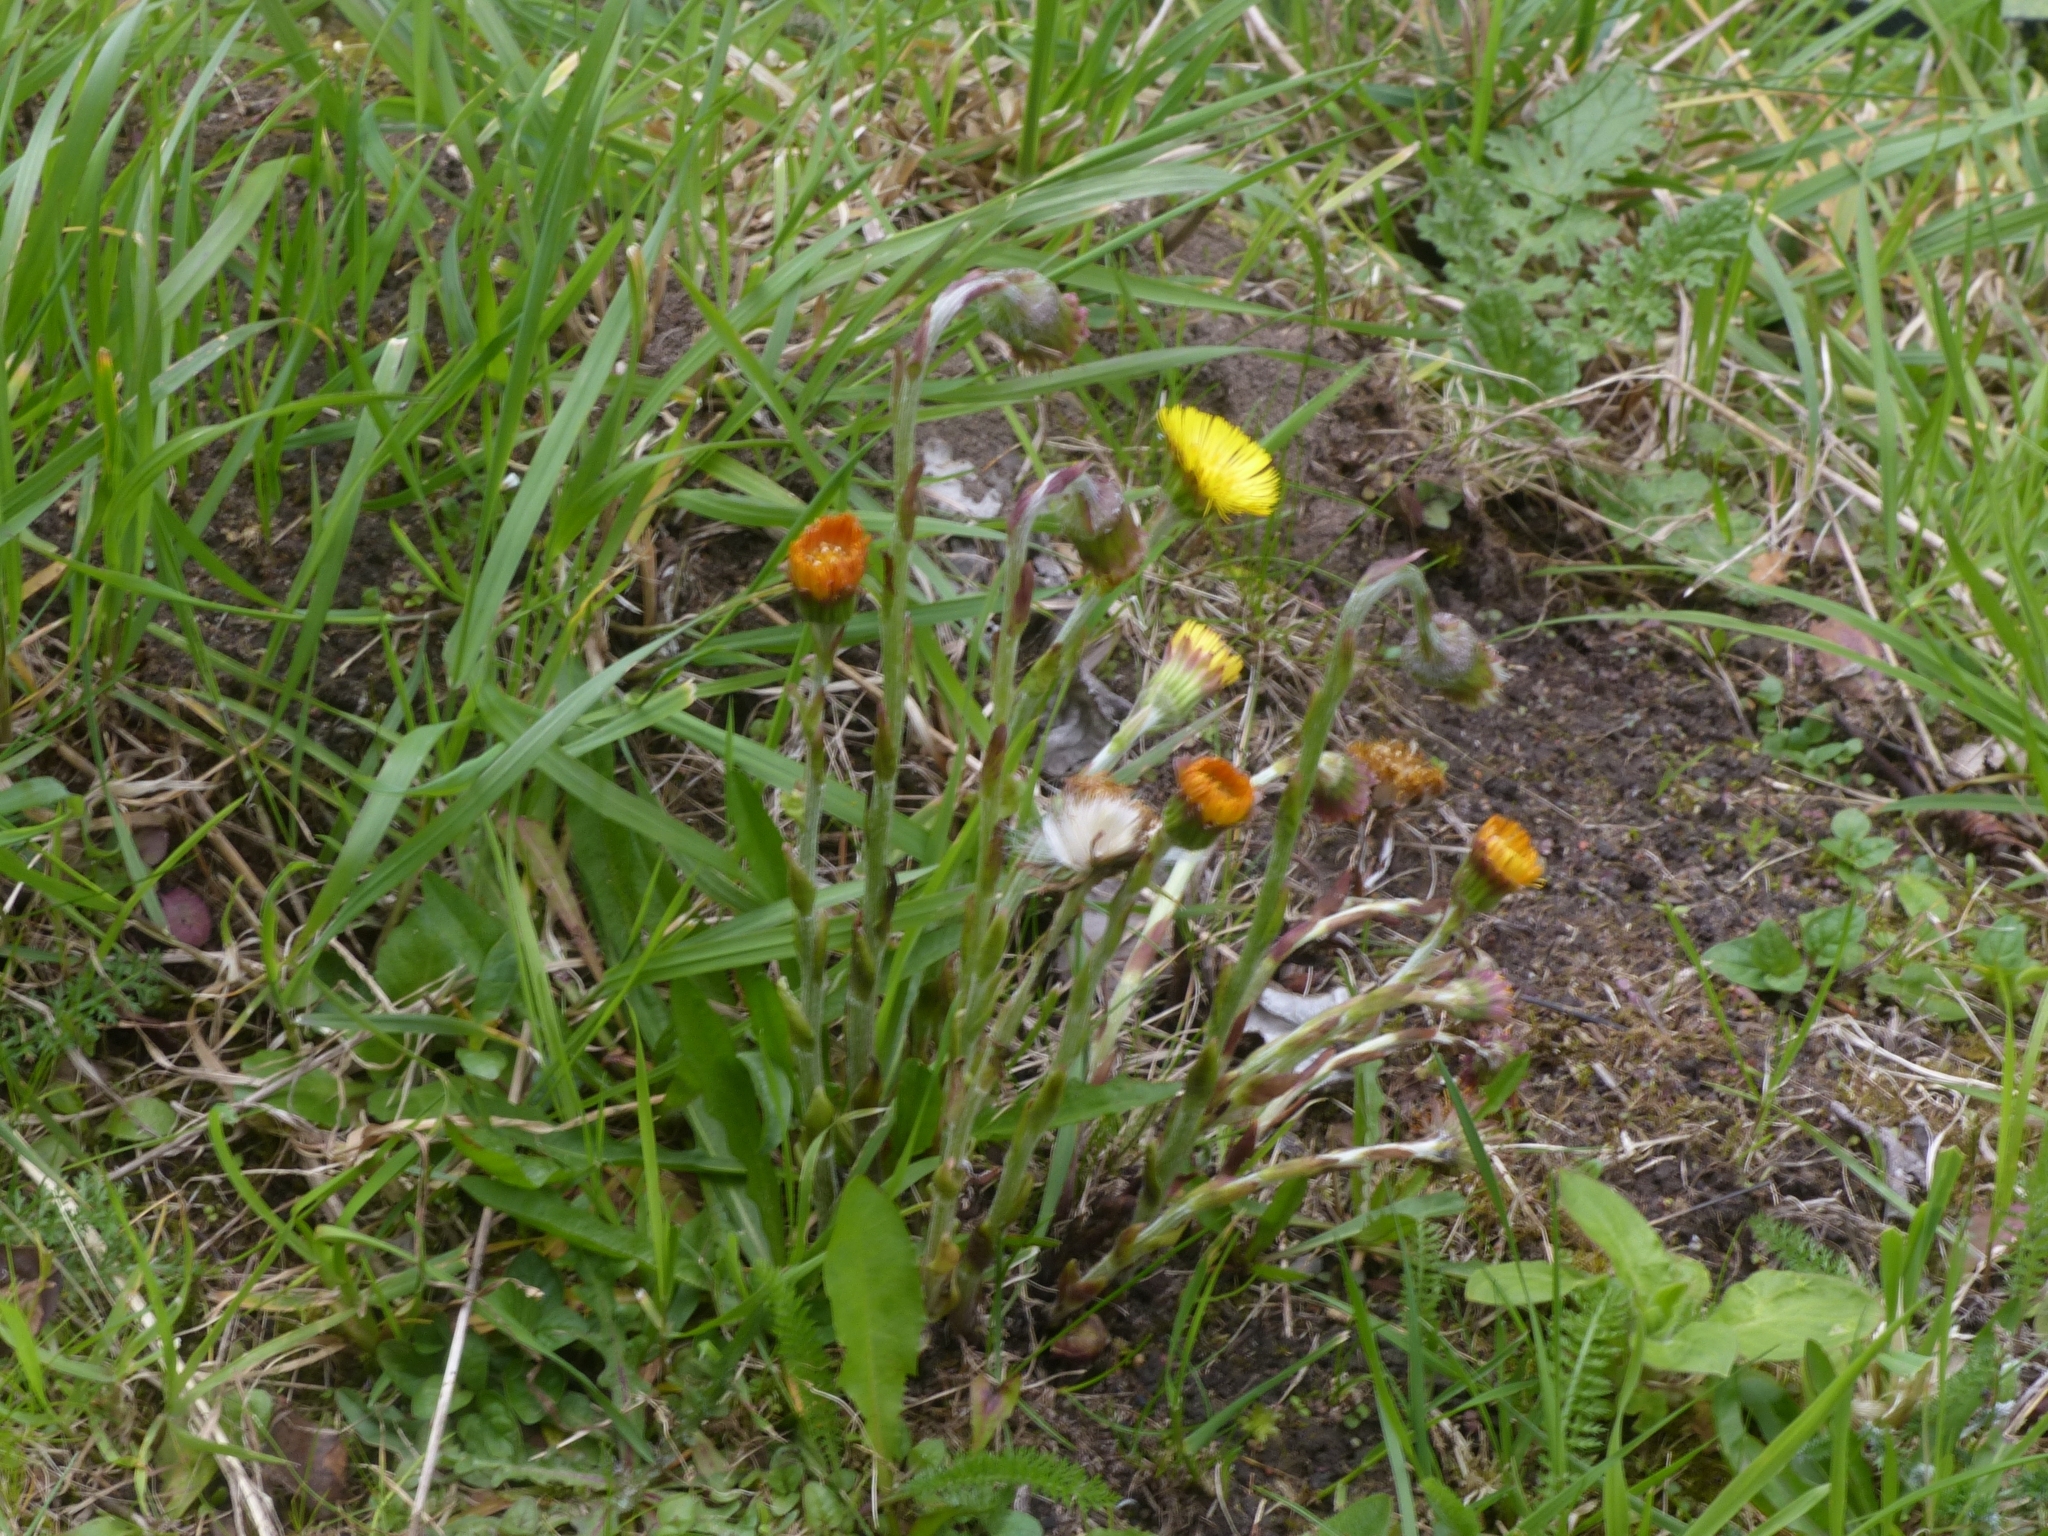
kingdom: Plantae
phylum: Tracheophyta
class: Magnoliopsida
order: Asterales
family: Asteraceae
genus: Tussilago
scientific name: Tussilago farfara
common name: Coltsfoot
